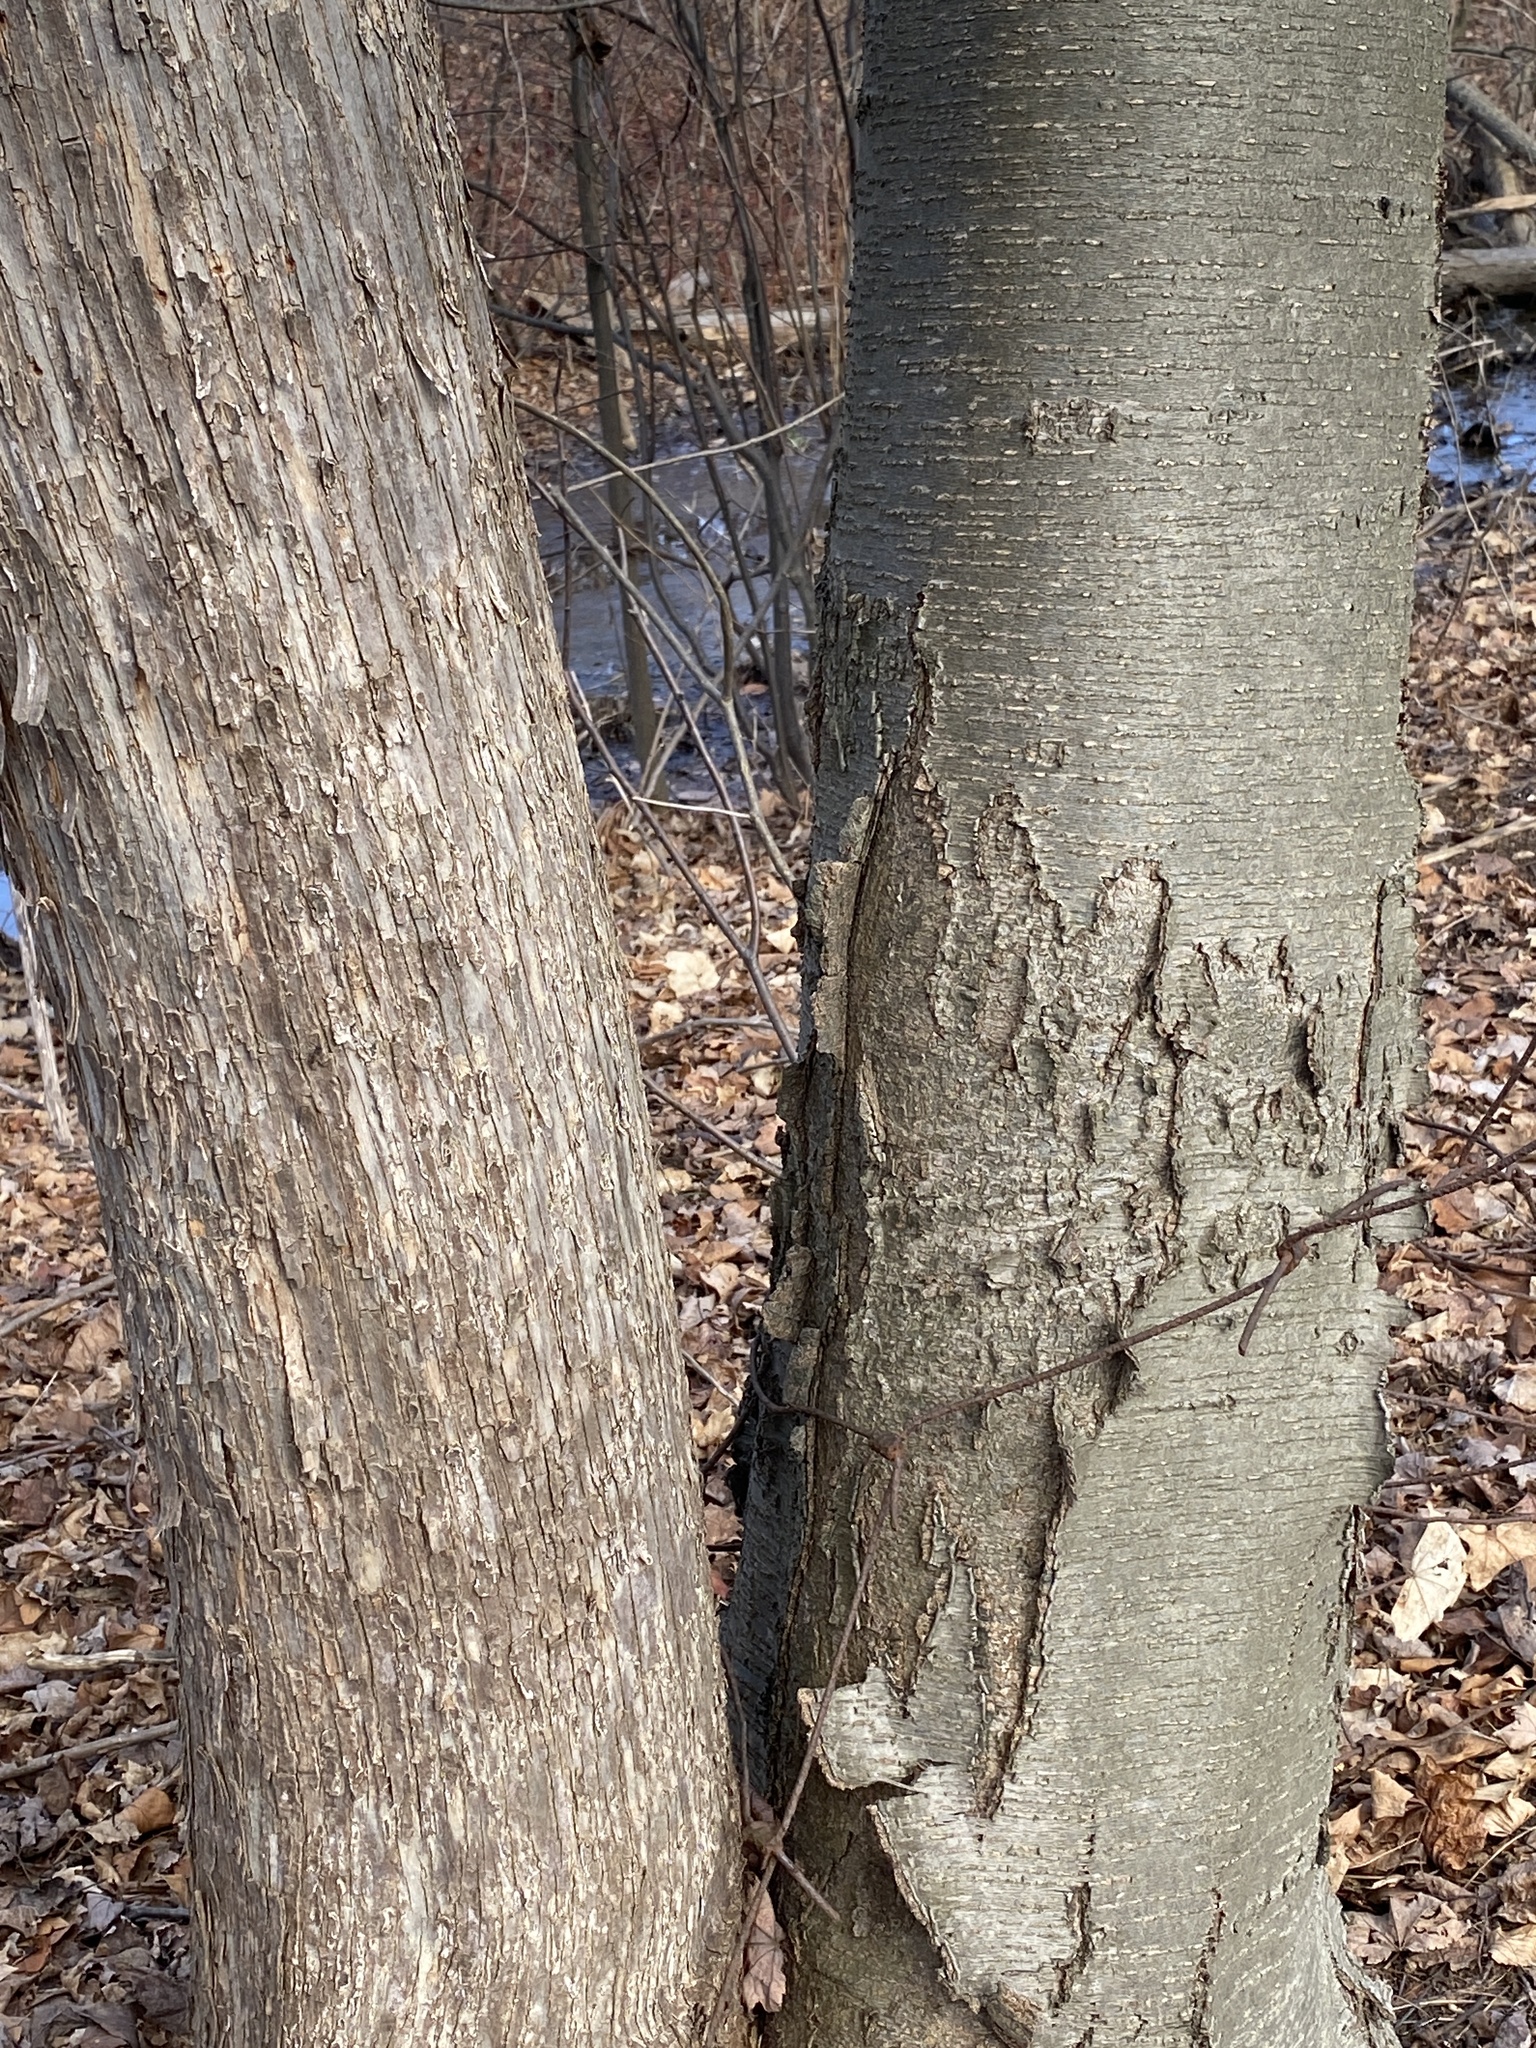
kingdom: Plantae
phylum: Tracheophyta
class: Magnoliopsida
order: Fagales
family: Betulaceae
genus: Betula
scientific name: Betula lenta
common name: Black birch
